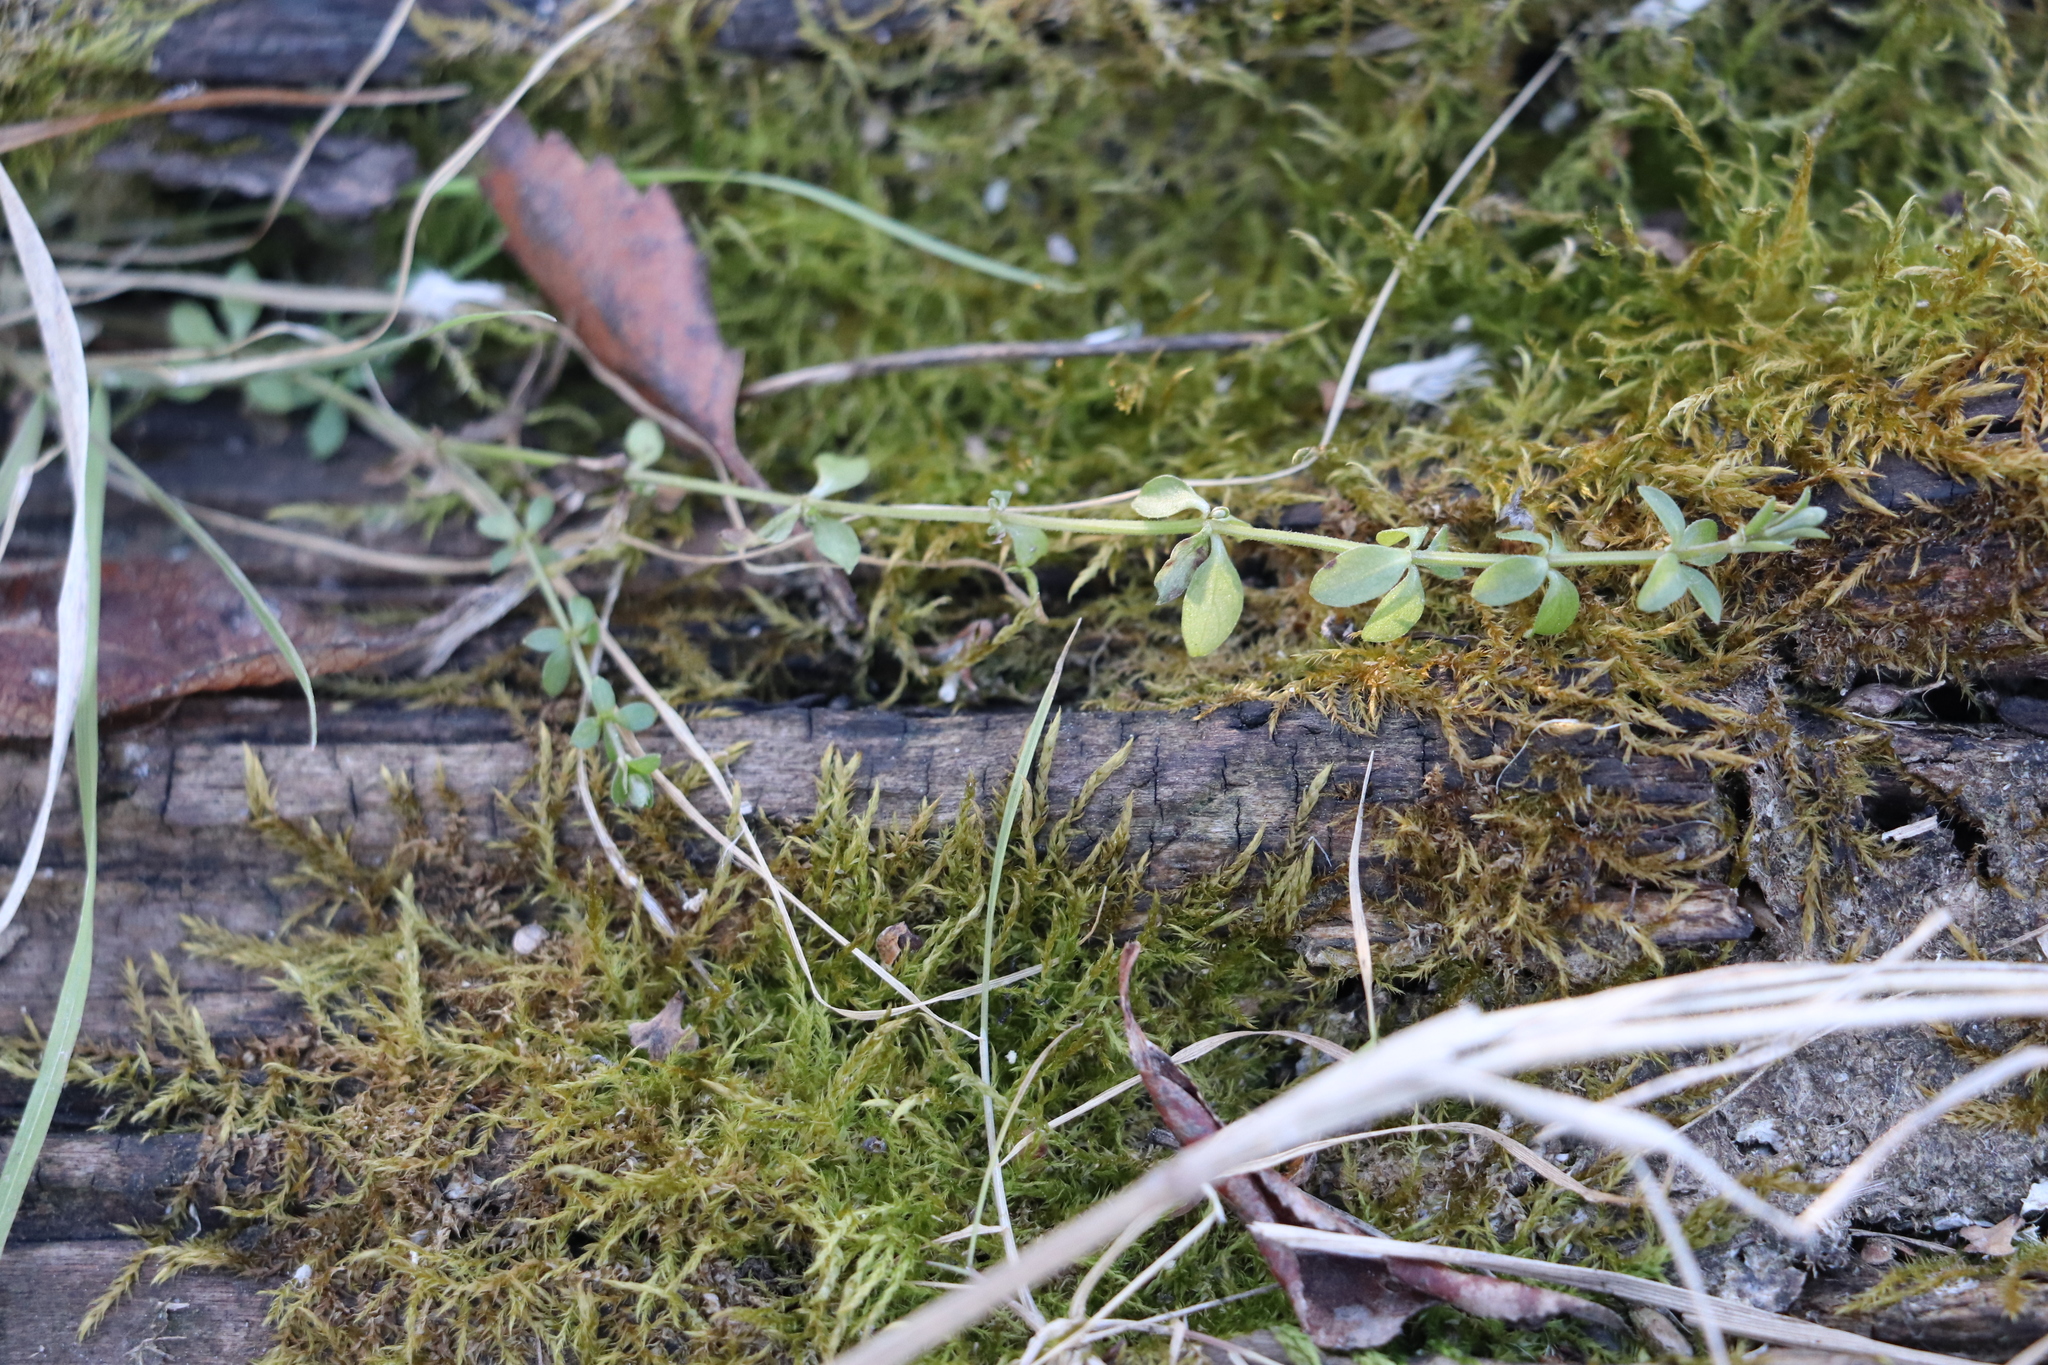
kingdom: Plantae
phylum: Tracheophyta
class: Magnoliopsida
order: Gentianales
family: Rubiaceae
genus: Galium
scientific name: Galium palustre
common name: Common marsh-bedstraw
